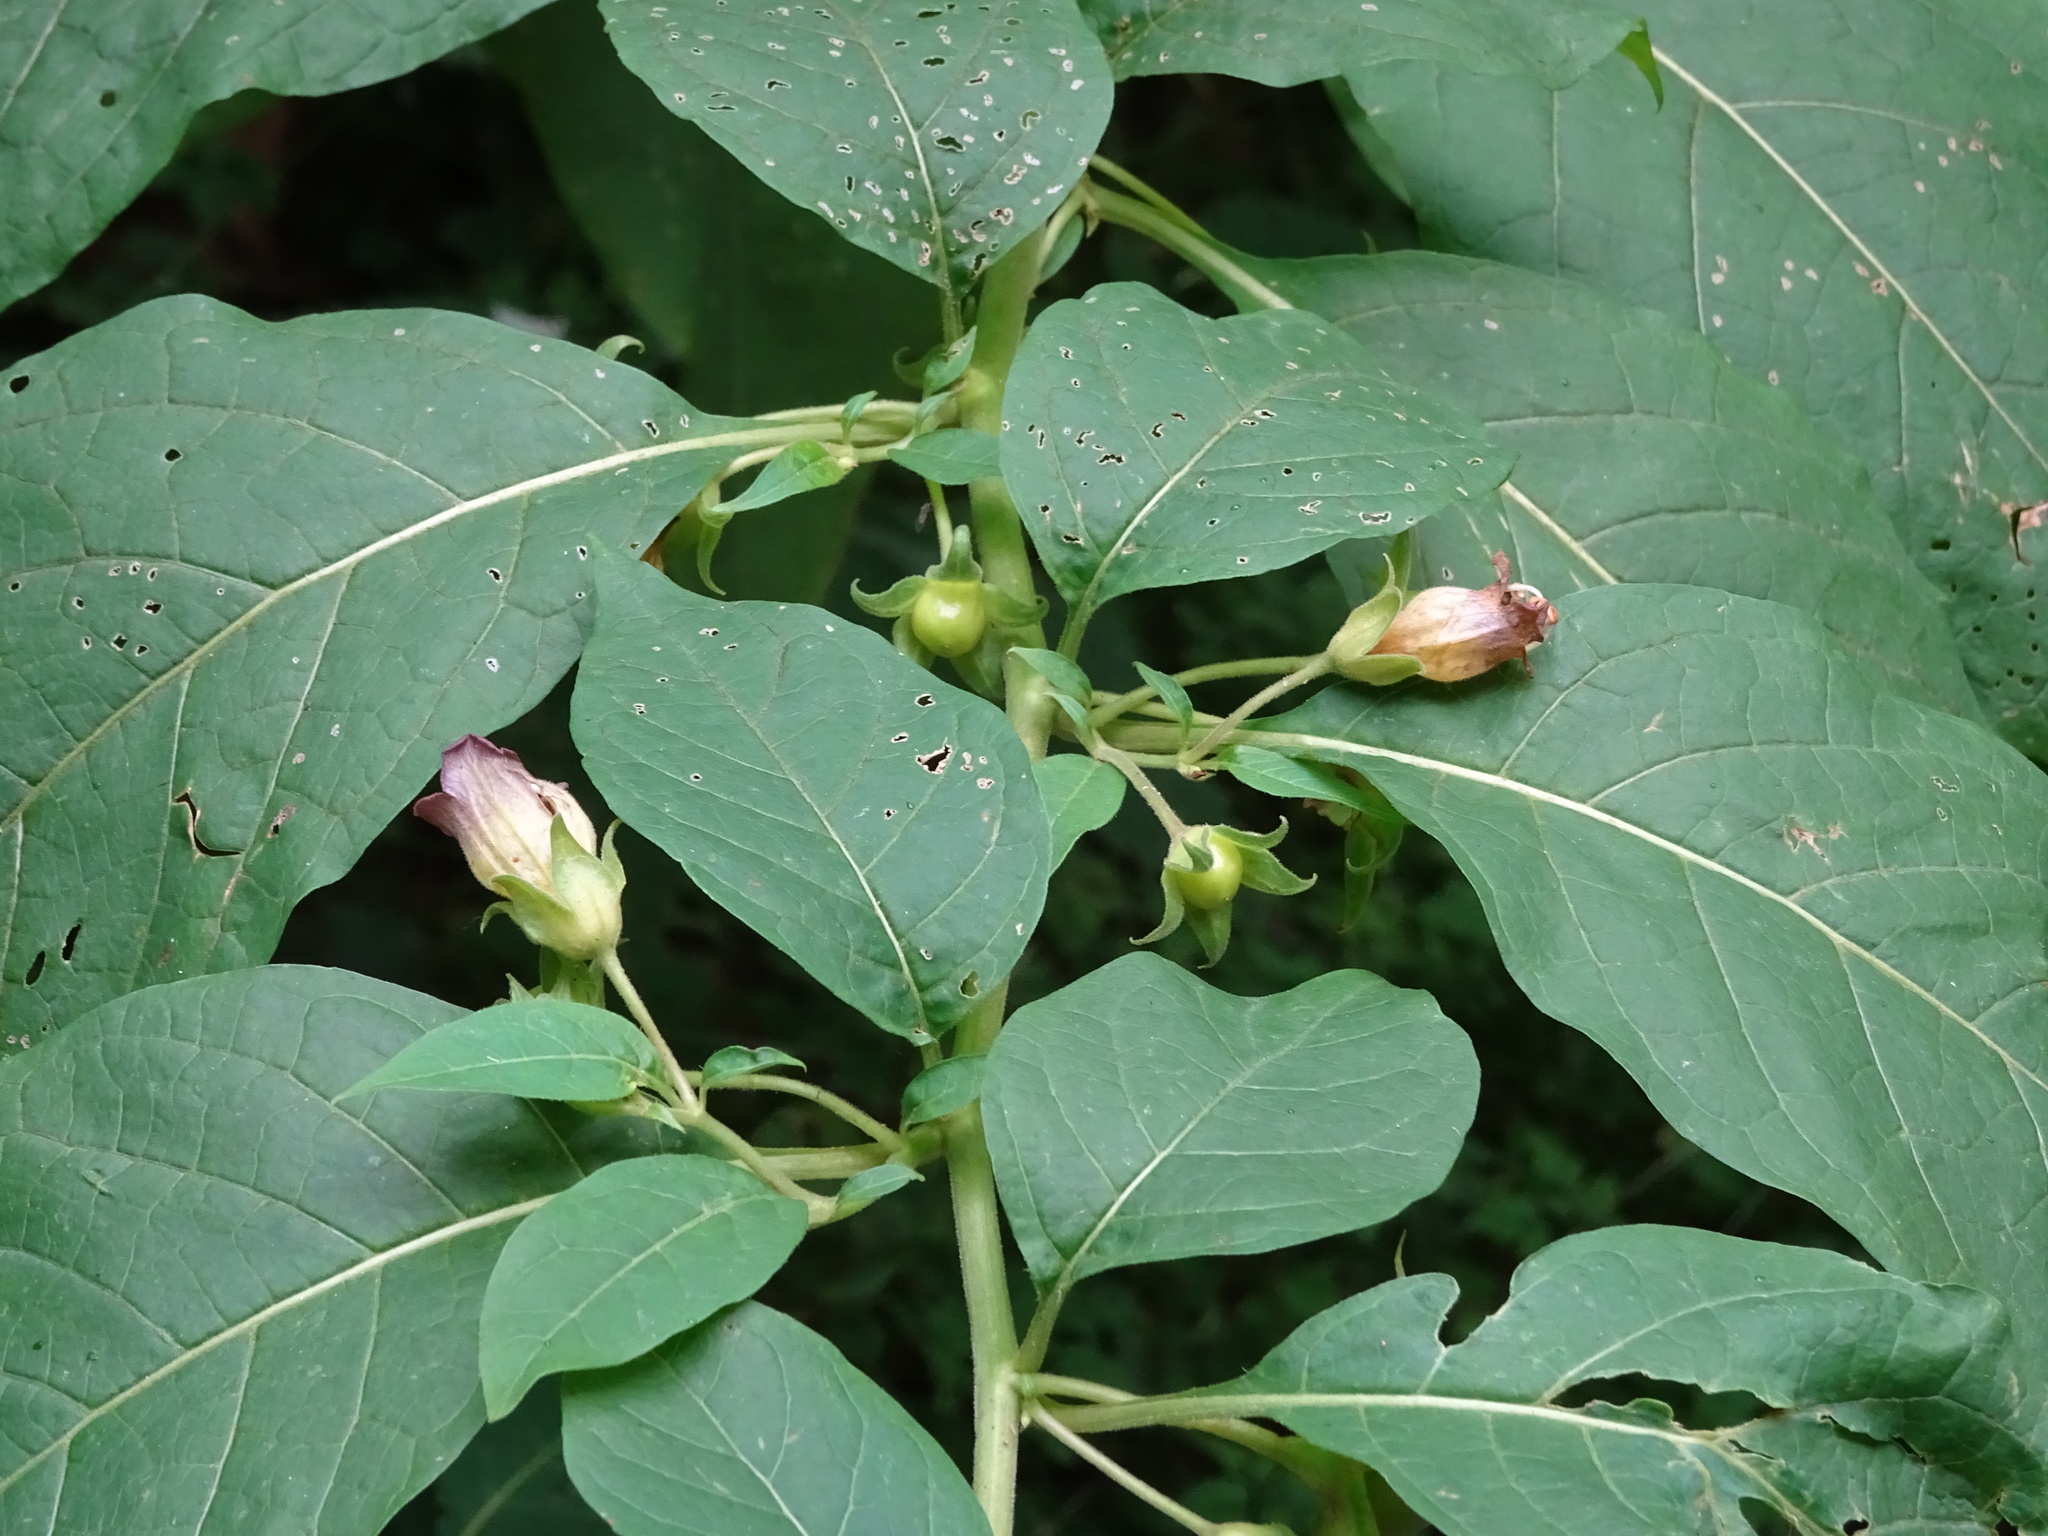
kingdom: Plantae
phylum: Tracheophyta
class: Magnoliopsida
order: Solanales
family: Solanaceae
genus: Atropa
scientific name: Atropa belladonna
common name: Deadly nightshade
